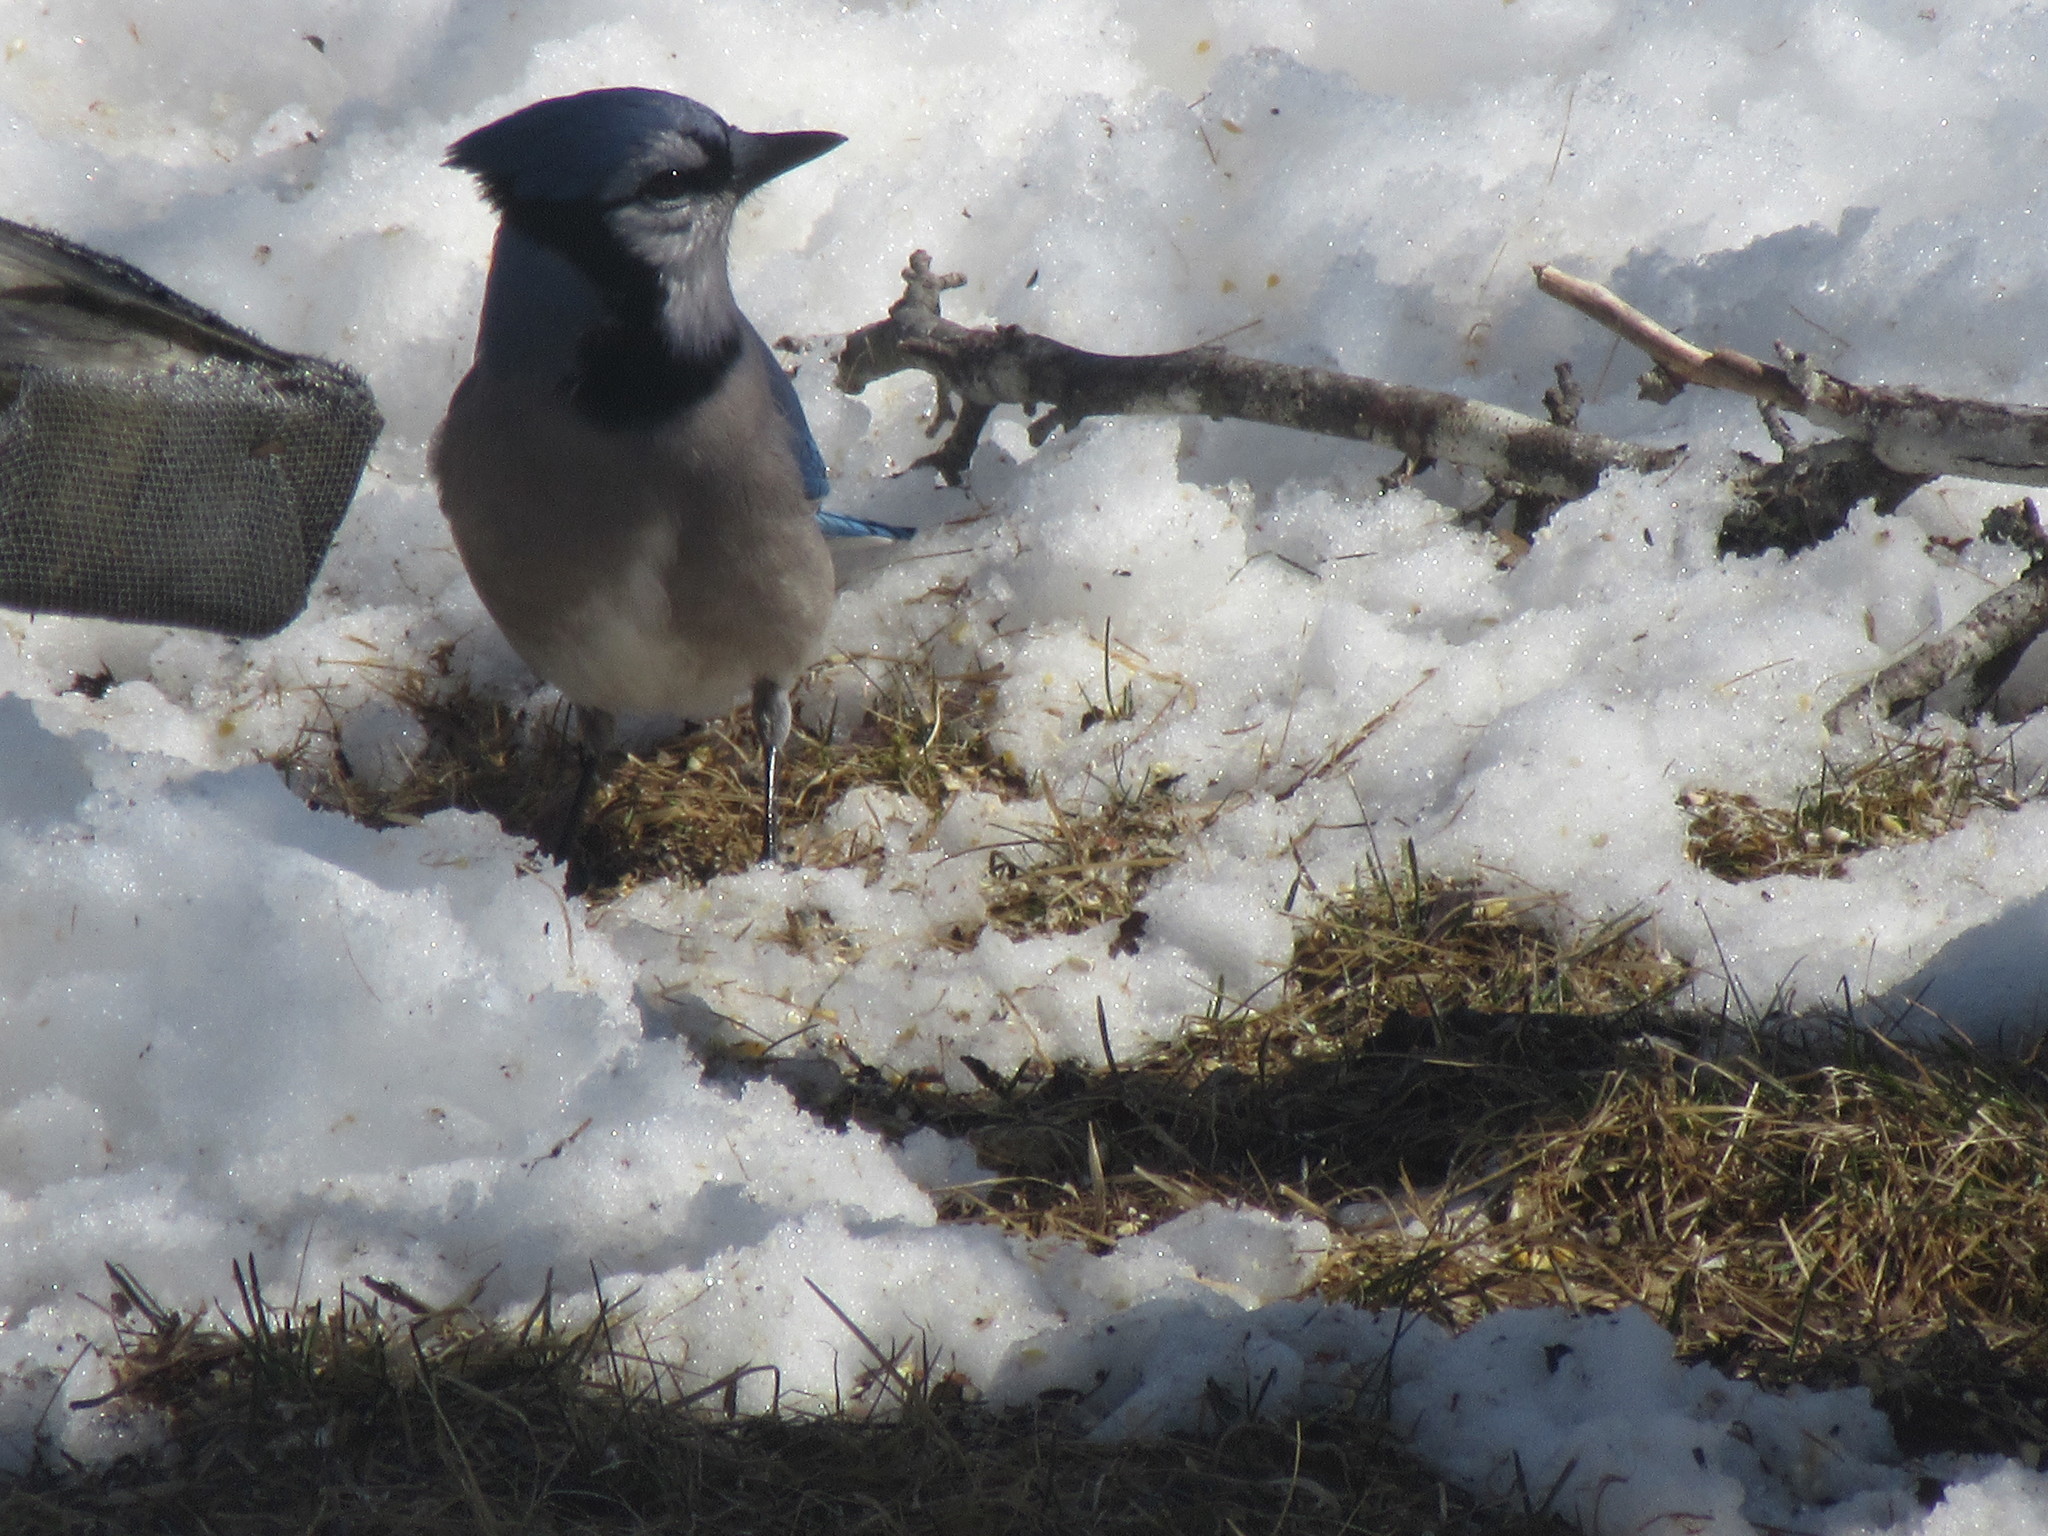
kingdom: Animalia
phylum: Chordata
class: Aves
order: Passeriformes
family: Corvidae
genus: Cyanocitta
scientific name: Cyanocitta cristata
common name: Blue jay
